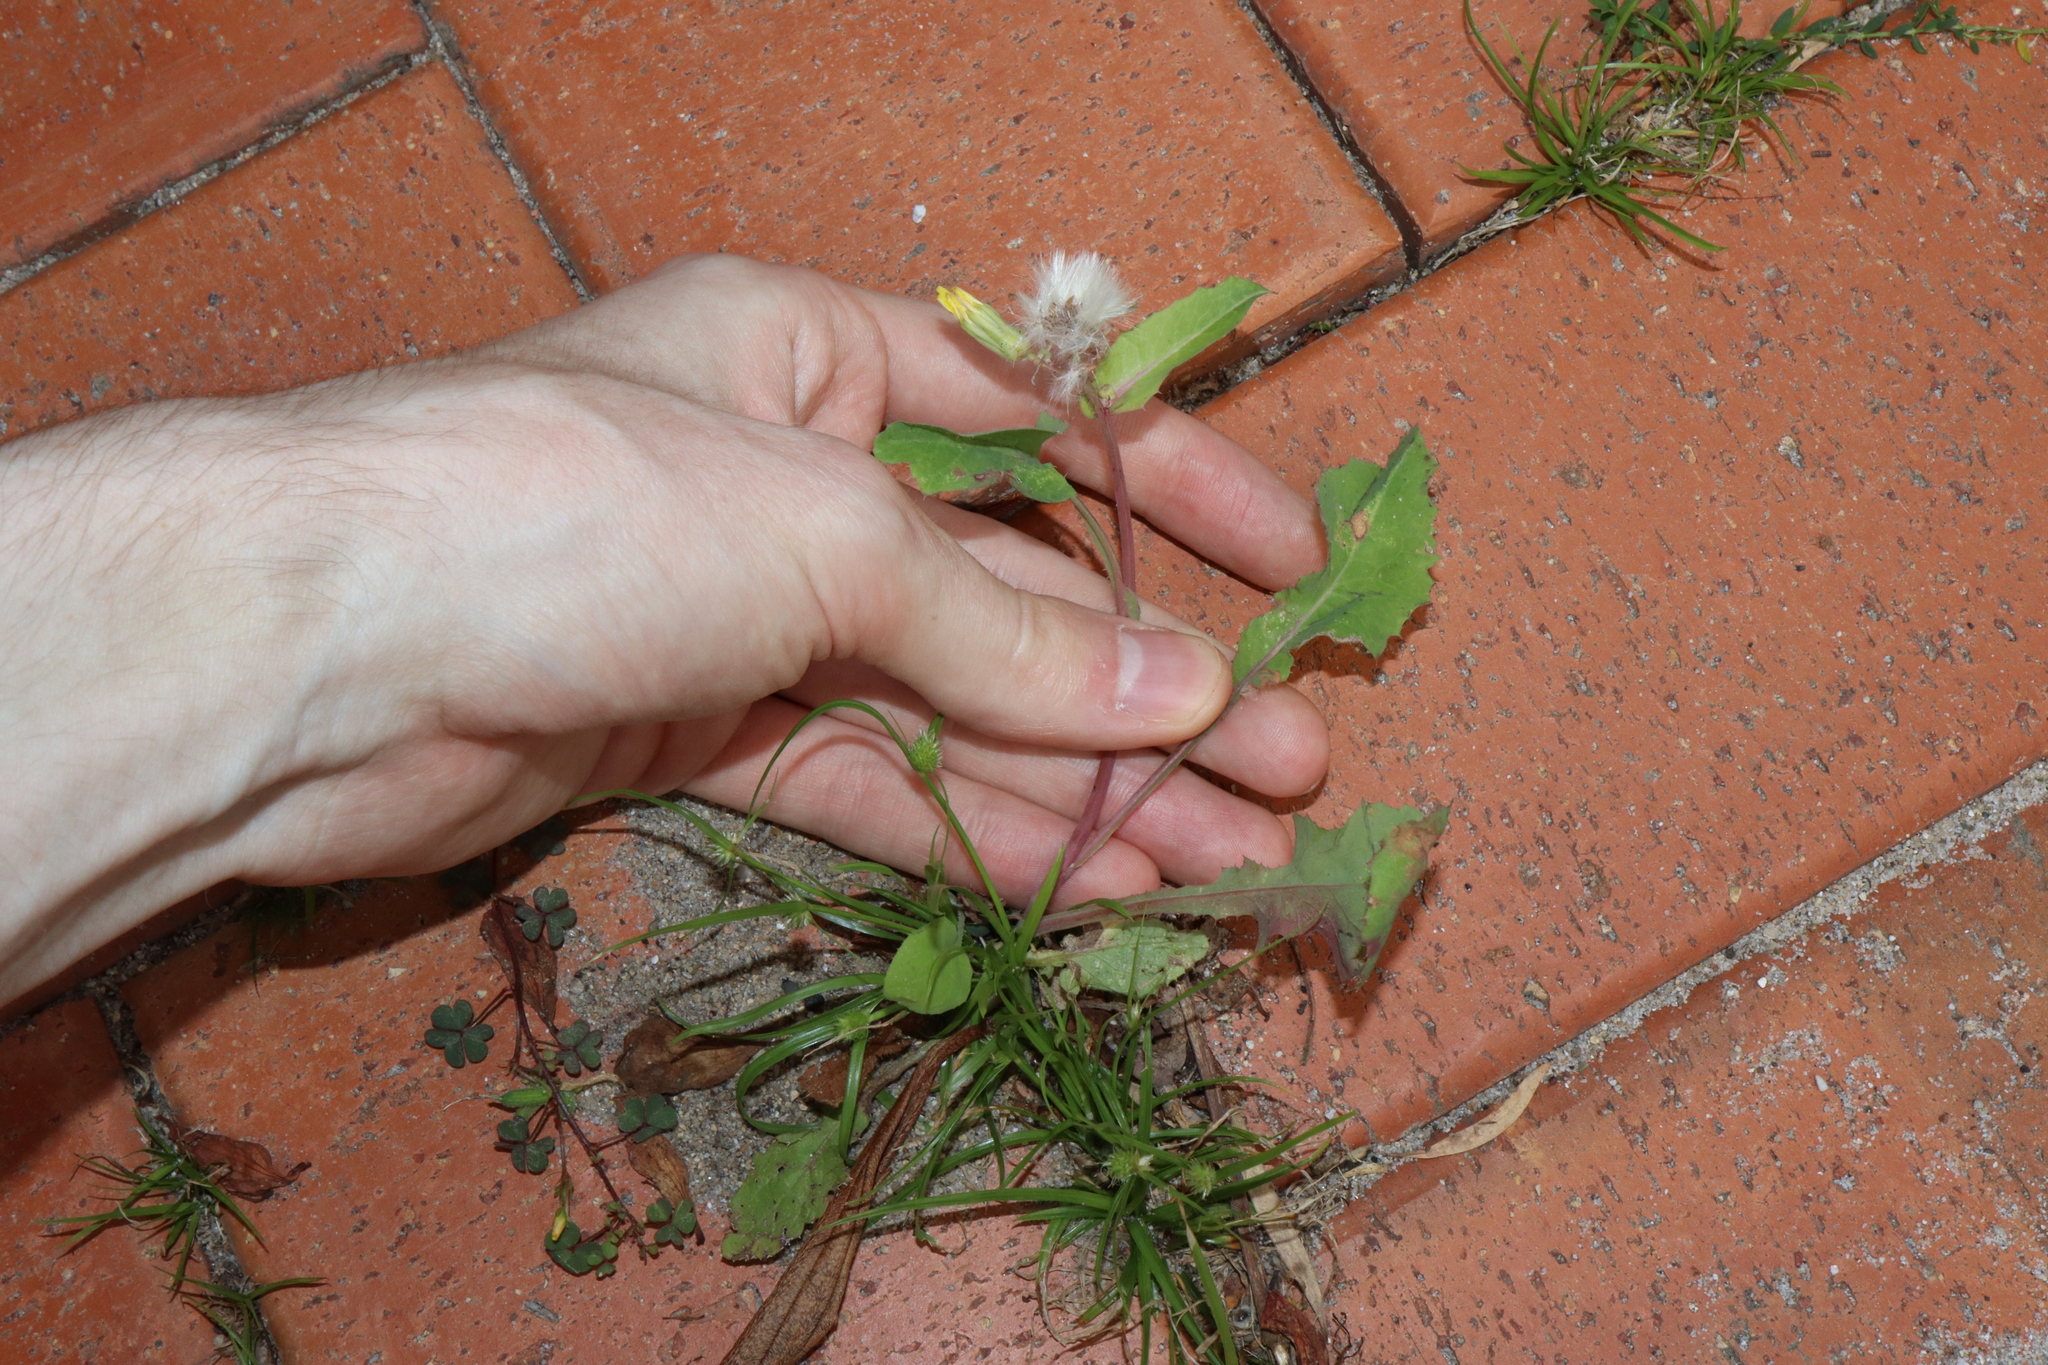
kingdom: Plantae
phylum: Tracheophyta
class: Magnoliopsida
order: Asterales
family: Asteraceae
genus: Sonchus
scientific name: Sonchus oleraceus
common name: Common sowthistle
